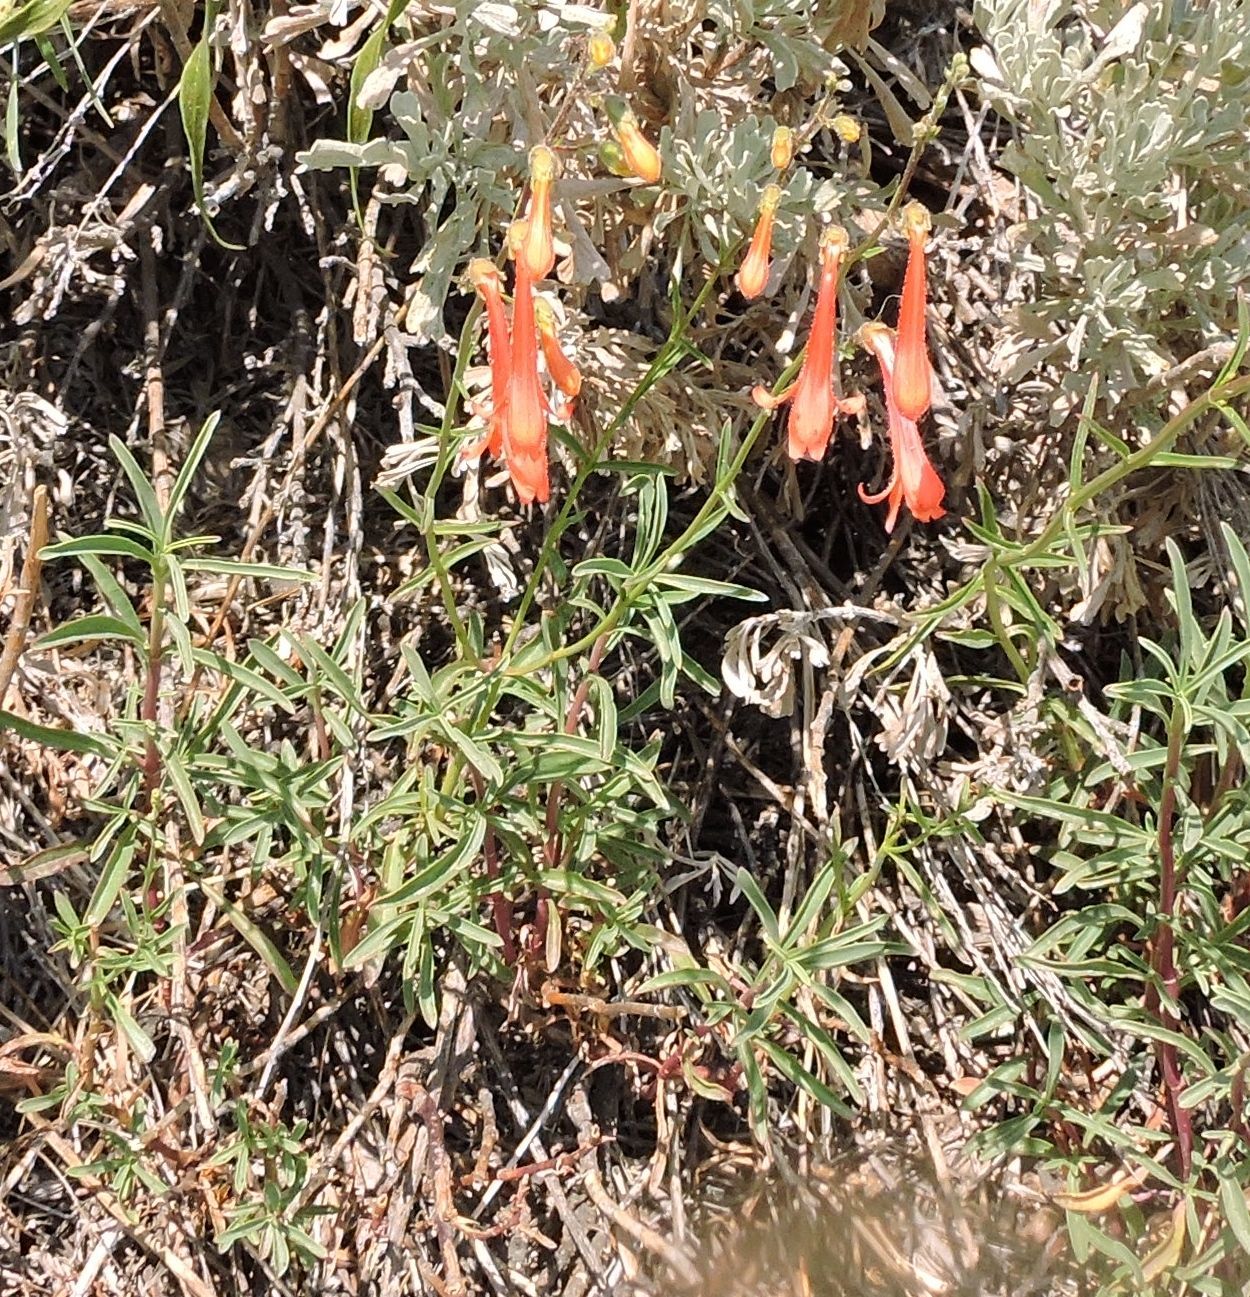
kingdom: Plantae
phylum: Tracheophyta
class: Magnoliopsida
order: Lamiales
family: Plantaginaceae
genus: Penstemon
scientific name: Penstemon rostriflorus
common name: Bridges's penstemon
